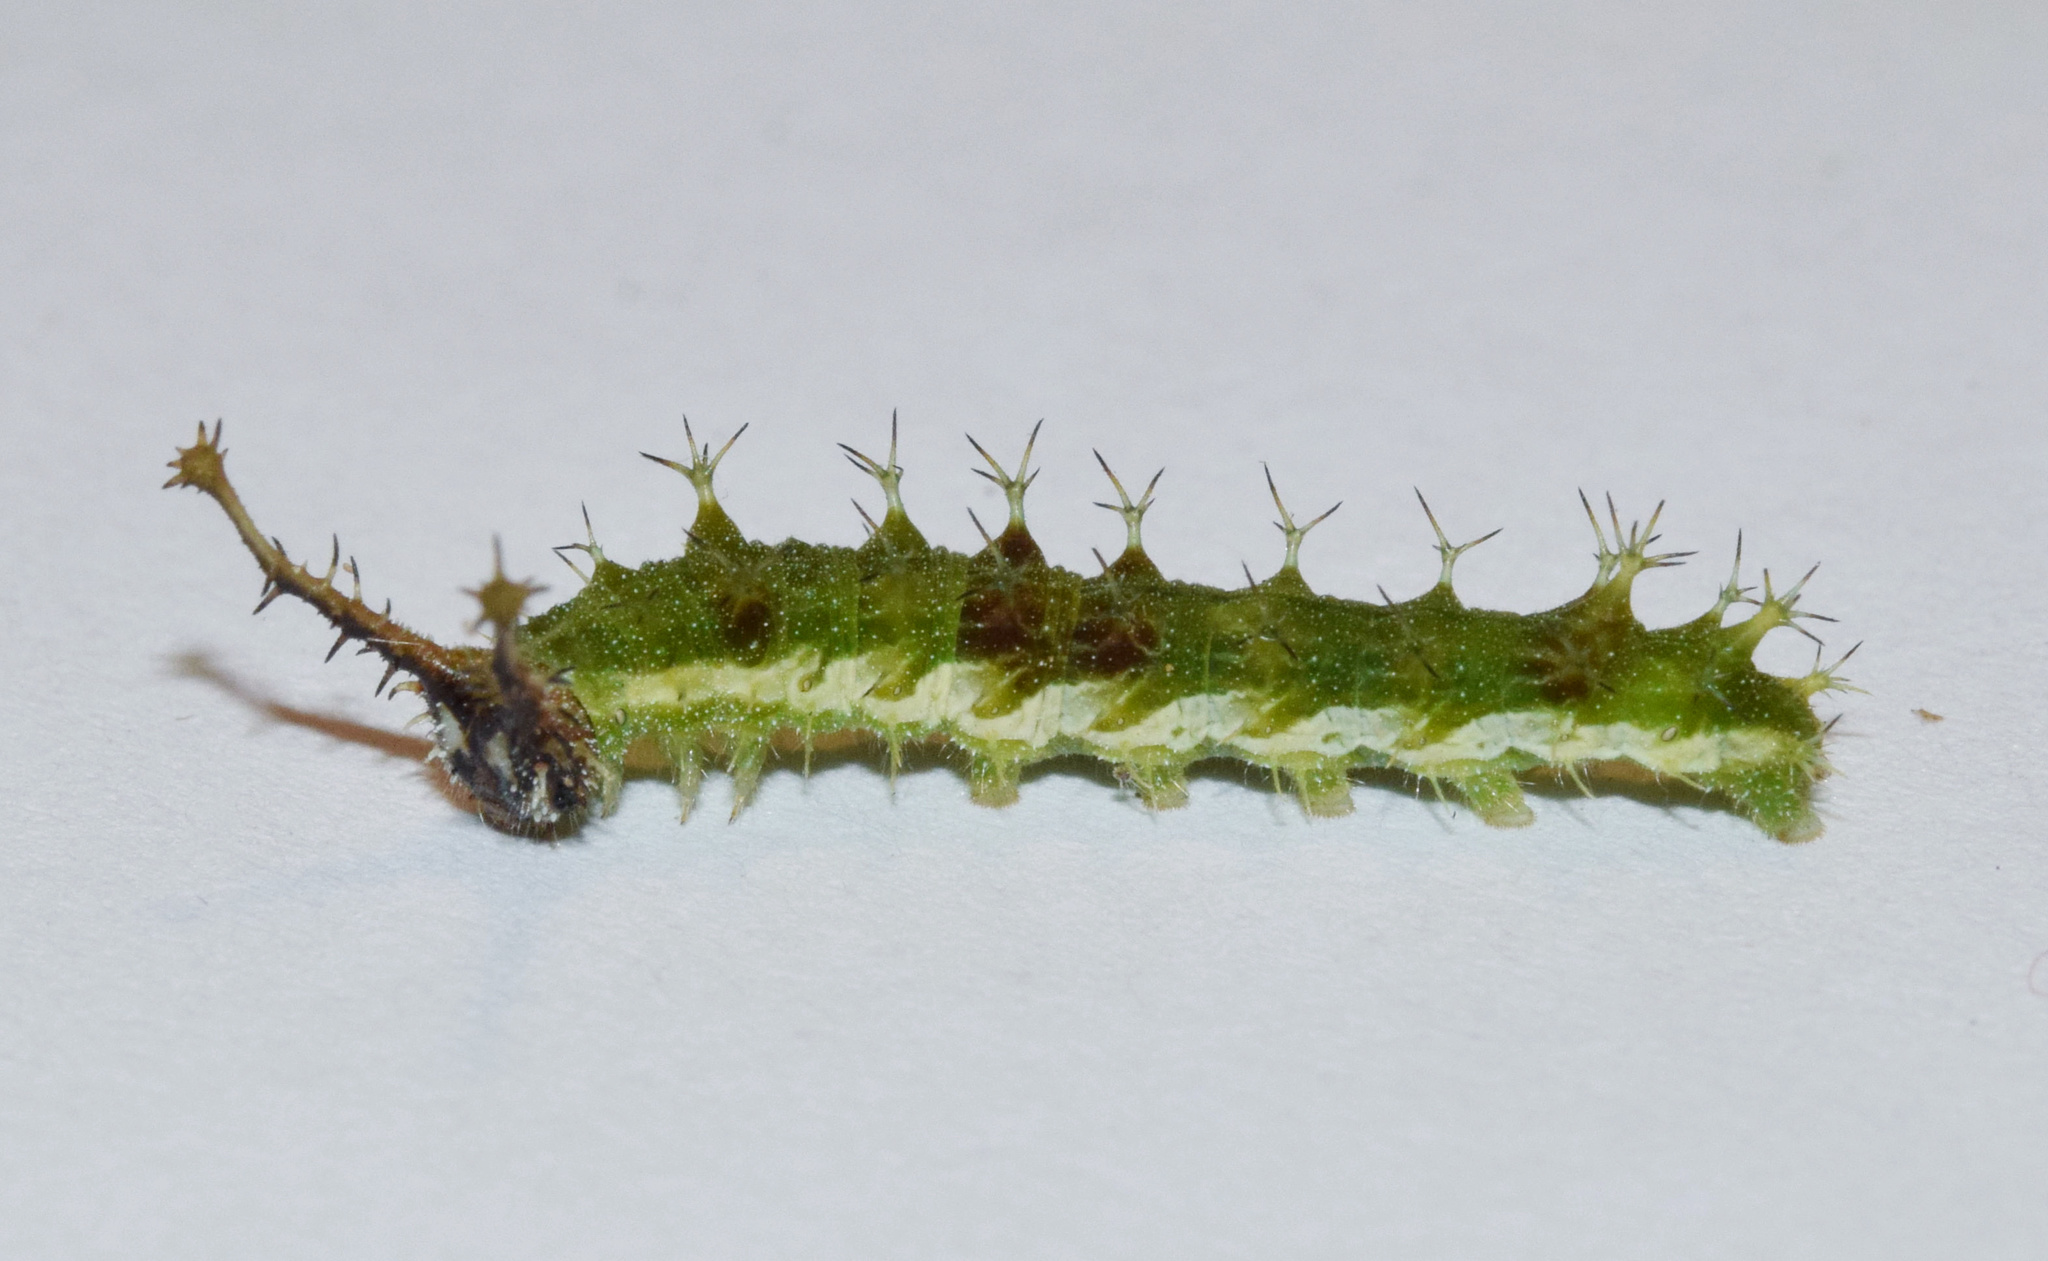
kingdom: Animalia
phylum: Arthropoda
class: Insecta
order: Lepidoptera
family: Nymphalidae
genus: Eurytela
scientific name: Eurytela dryope
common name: Golden piper
